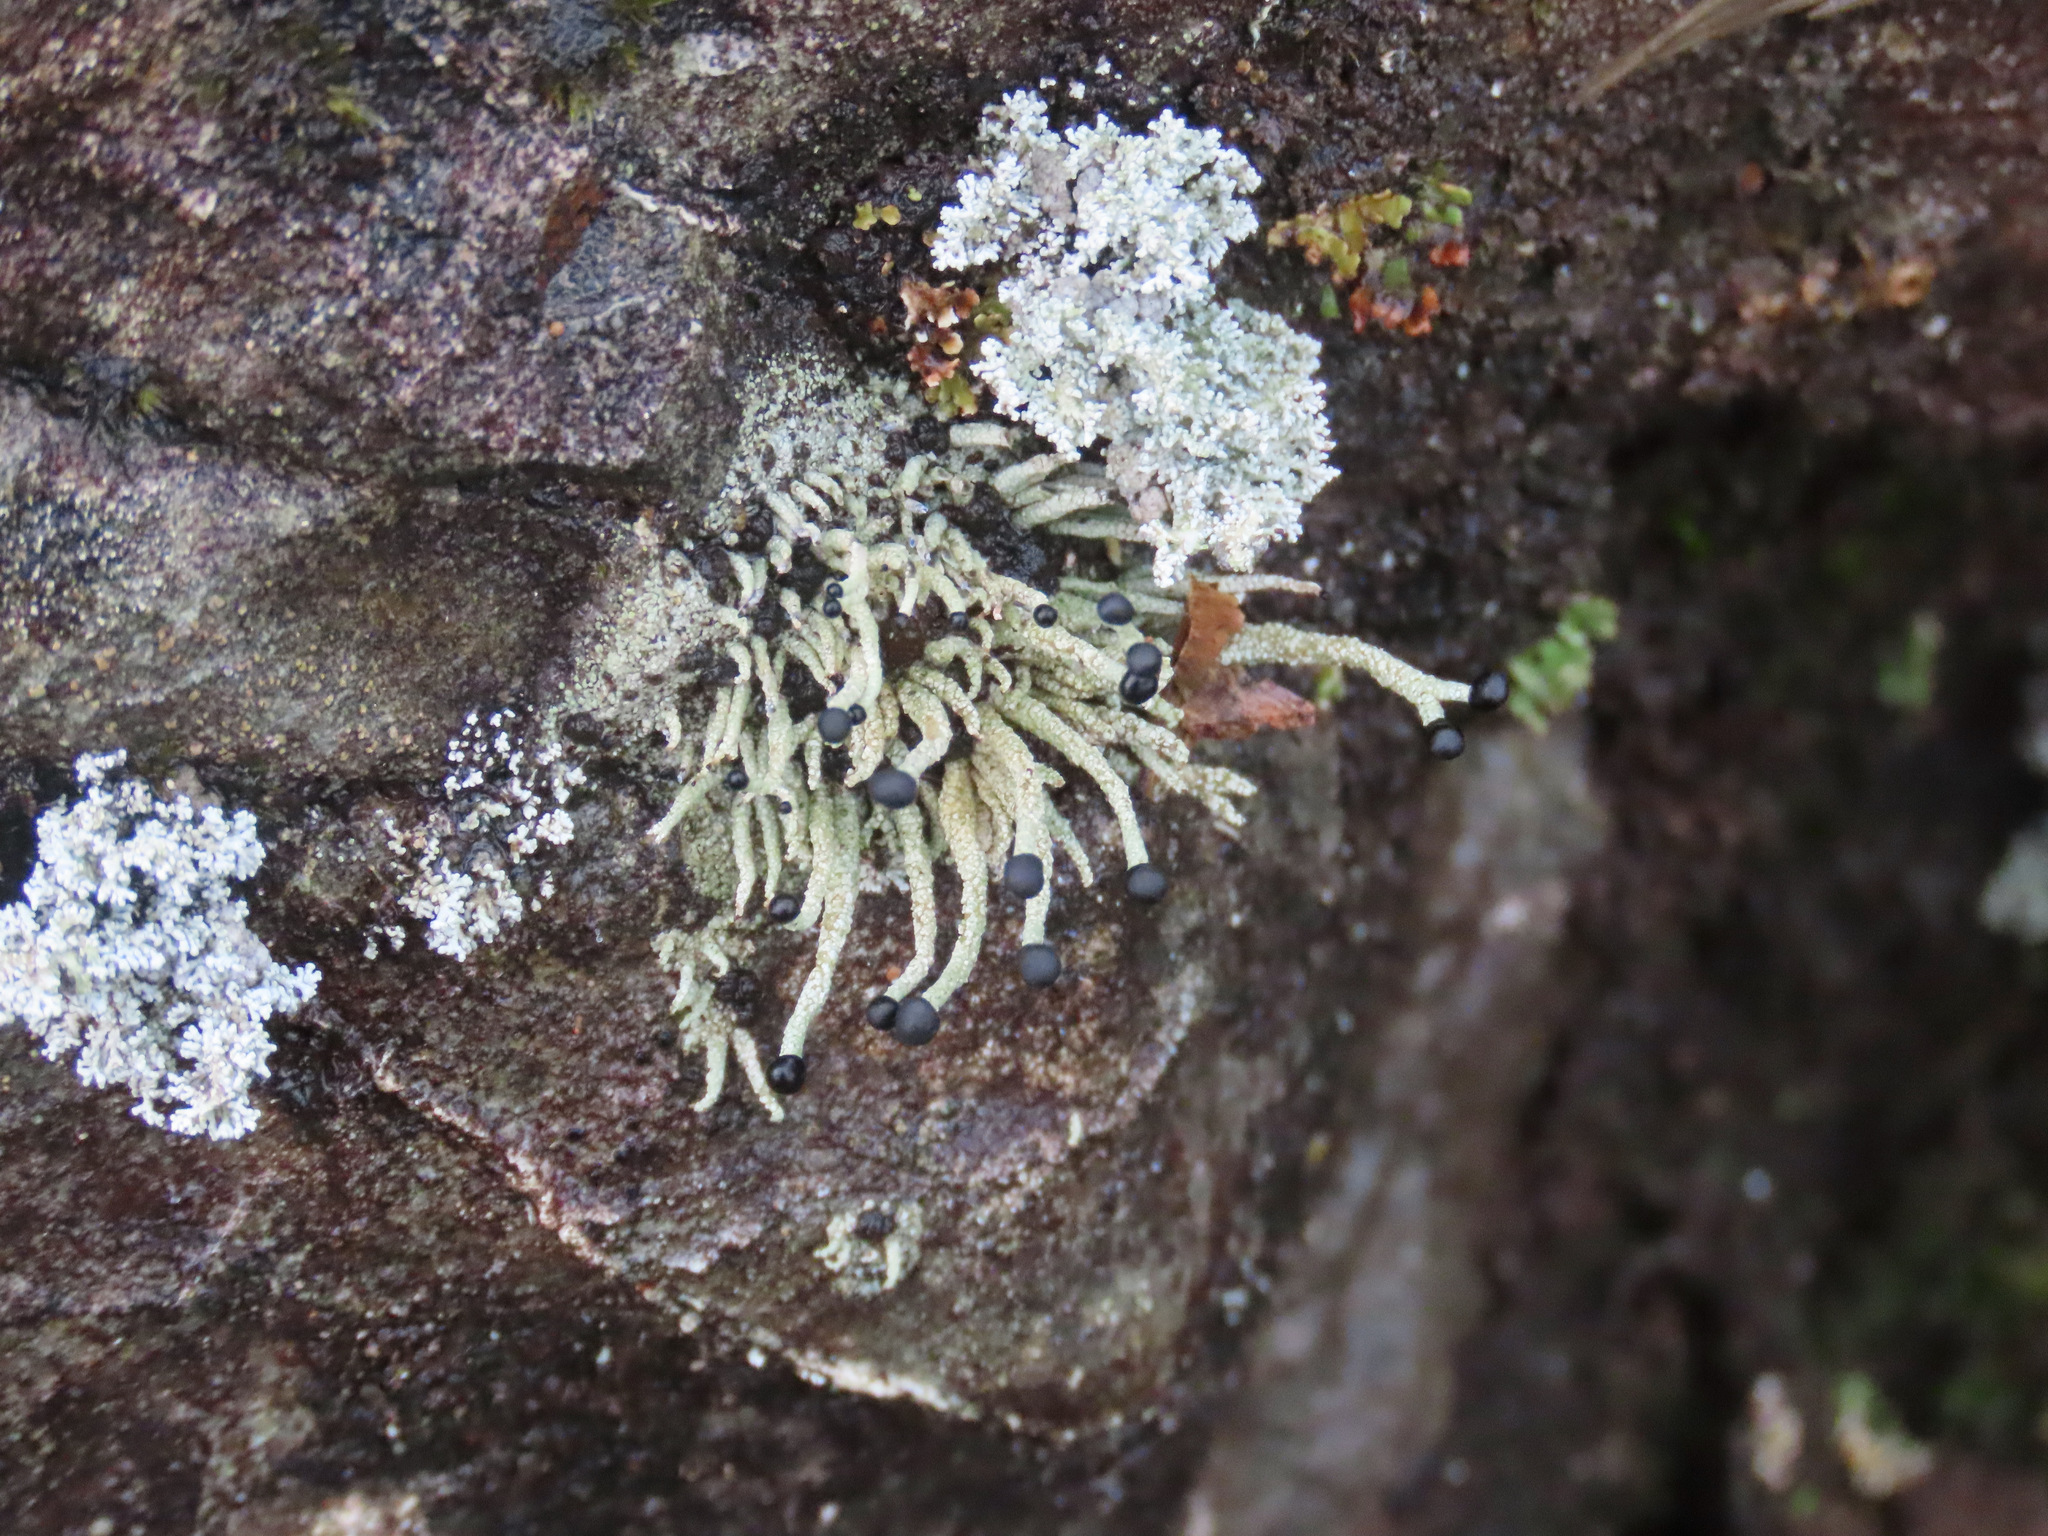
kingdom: Fungi
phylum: Ascomycota
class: Lecanoromycetes
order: Lecanorales
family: Cladoniaceae
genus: Pilophorus
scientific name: Pilophorus acicularis
